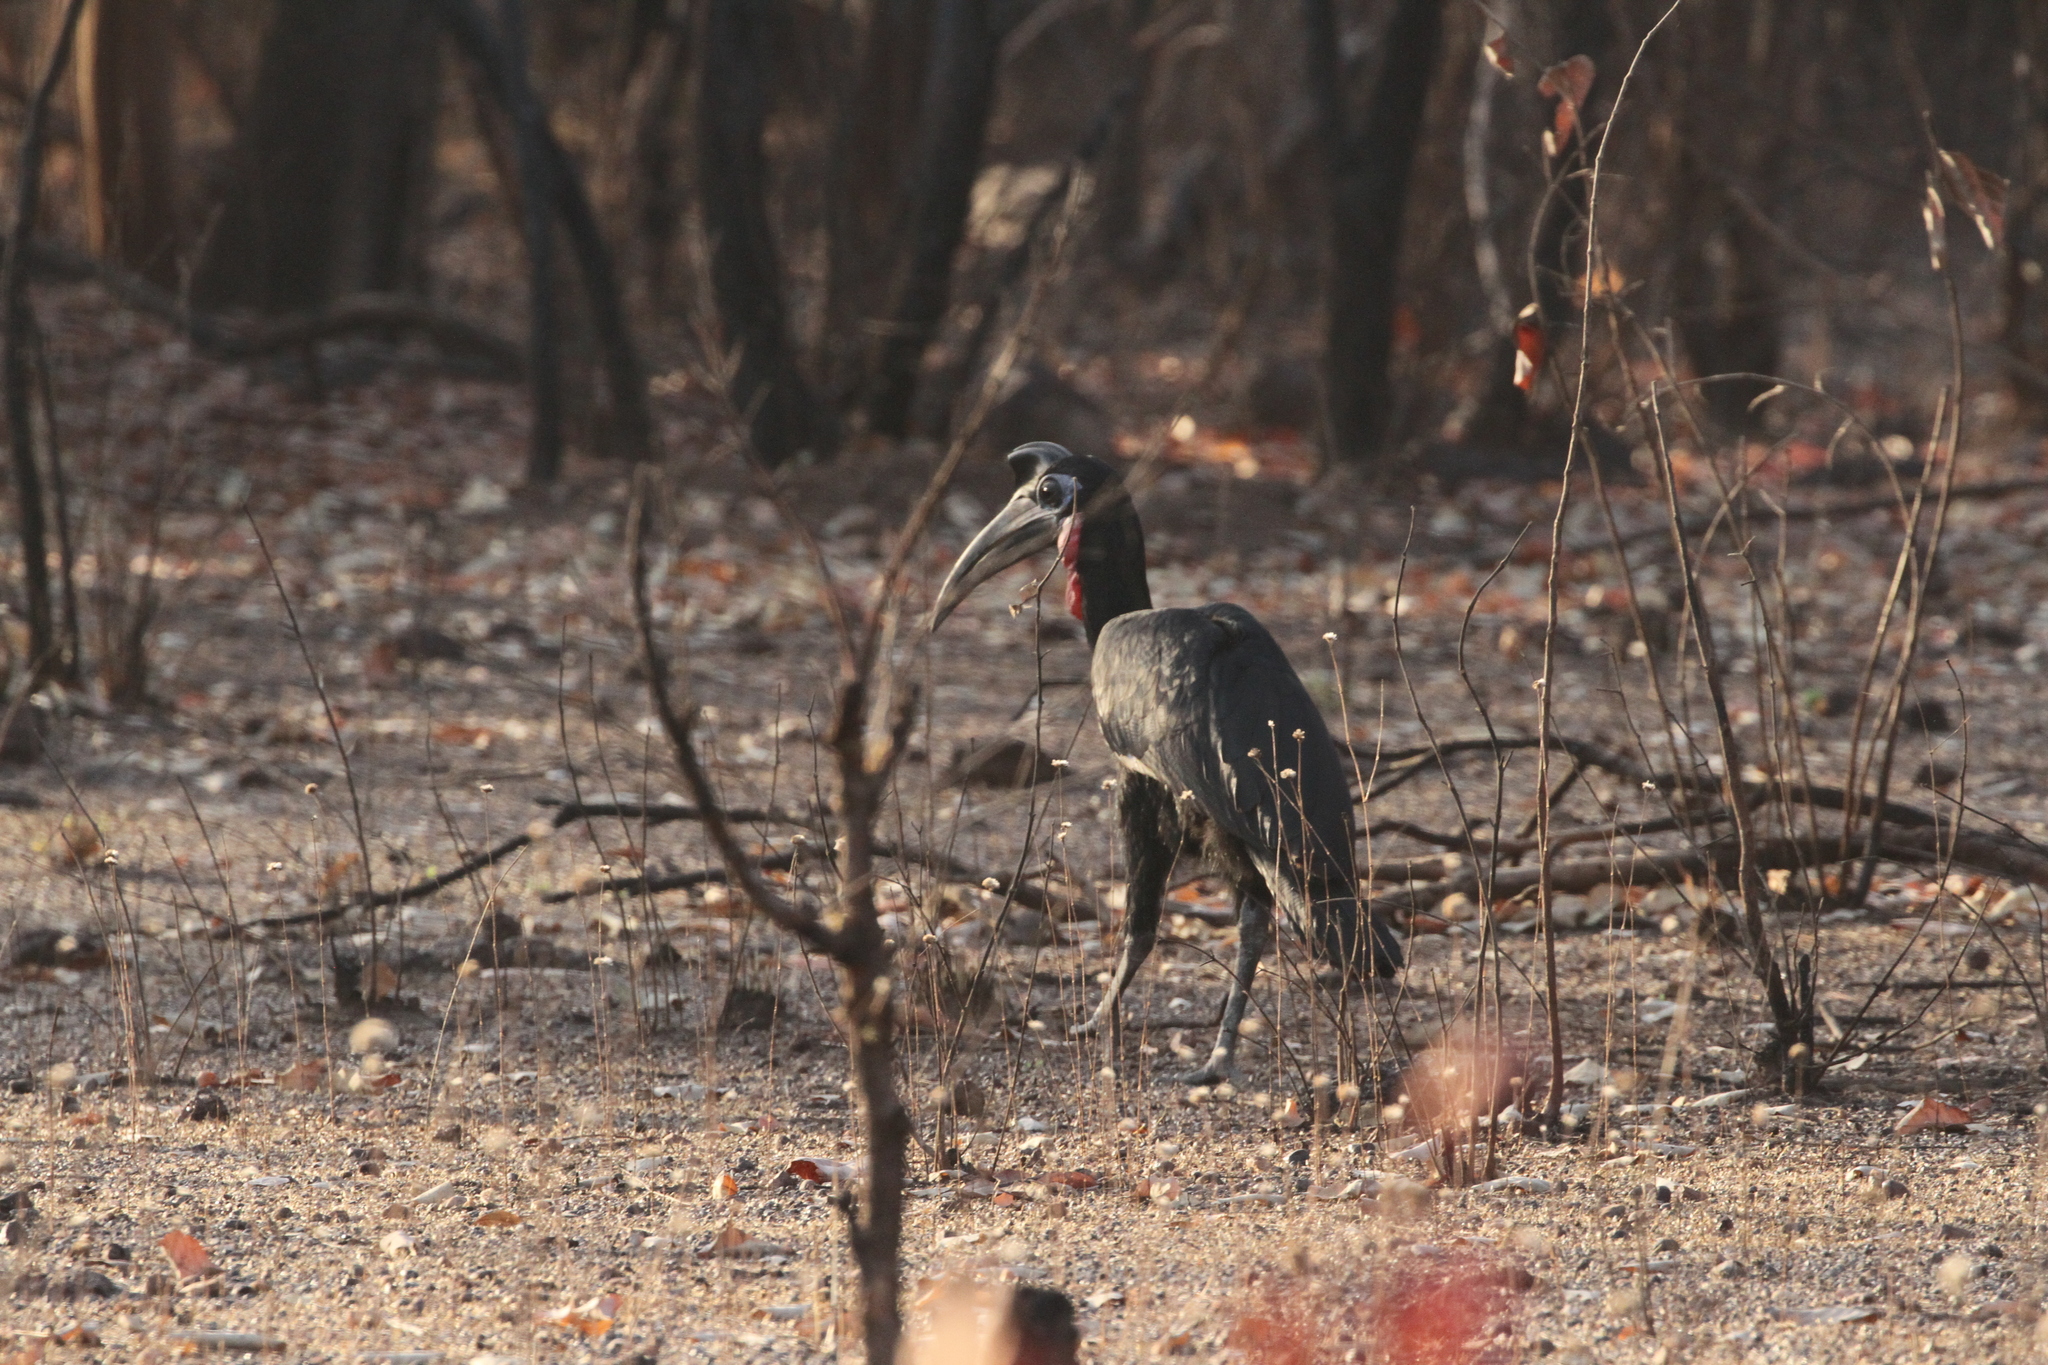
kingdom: Animalia
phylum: Chordata
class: Aves
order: Bucerotiformes
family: Bucorvidae
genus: Bucorvus
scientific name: Bucorvus abyssinicus
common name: Abyssinian ground hornbill
